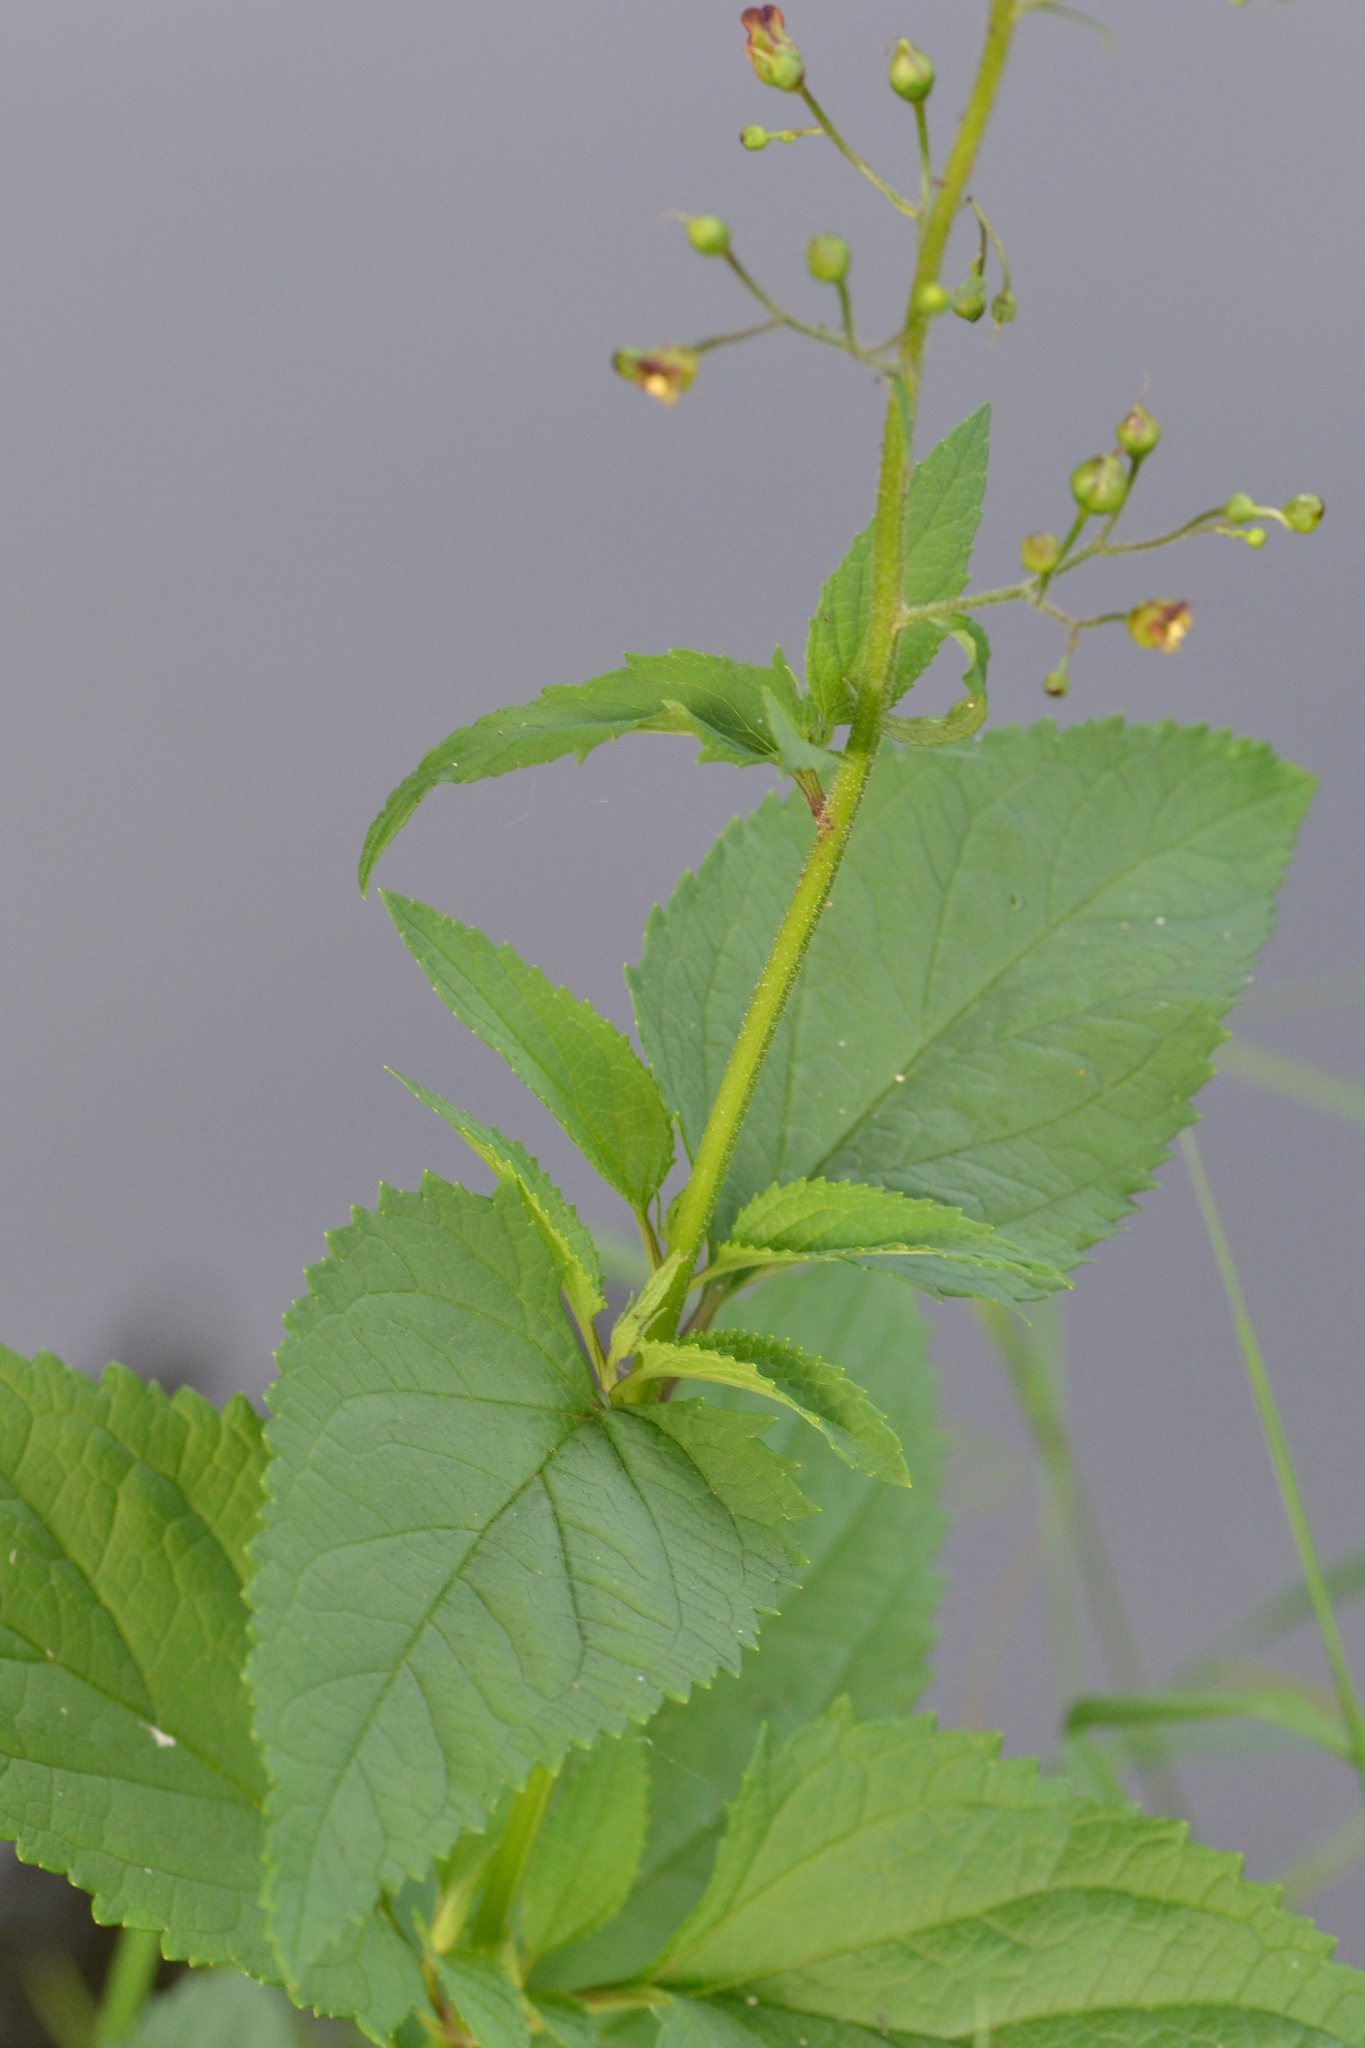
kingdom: Plantae
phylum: Tracheophyta
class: Magnoliopsida
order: Lamiales
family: Scrophulariaceae
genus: Scrophularia
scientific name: Scrophularia nodosa
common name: Common figwort
